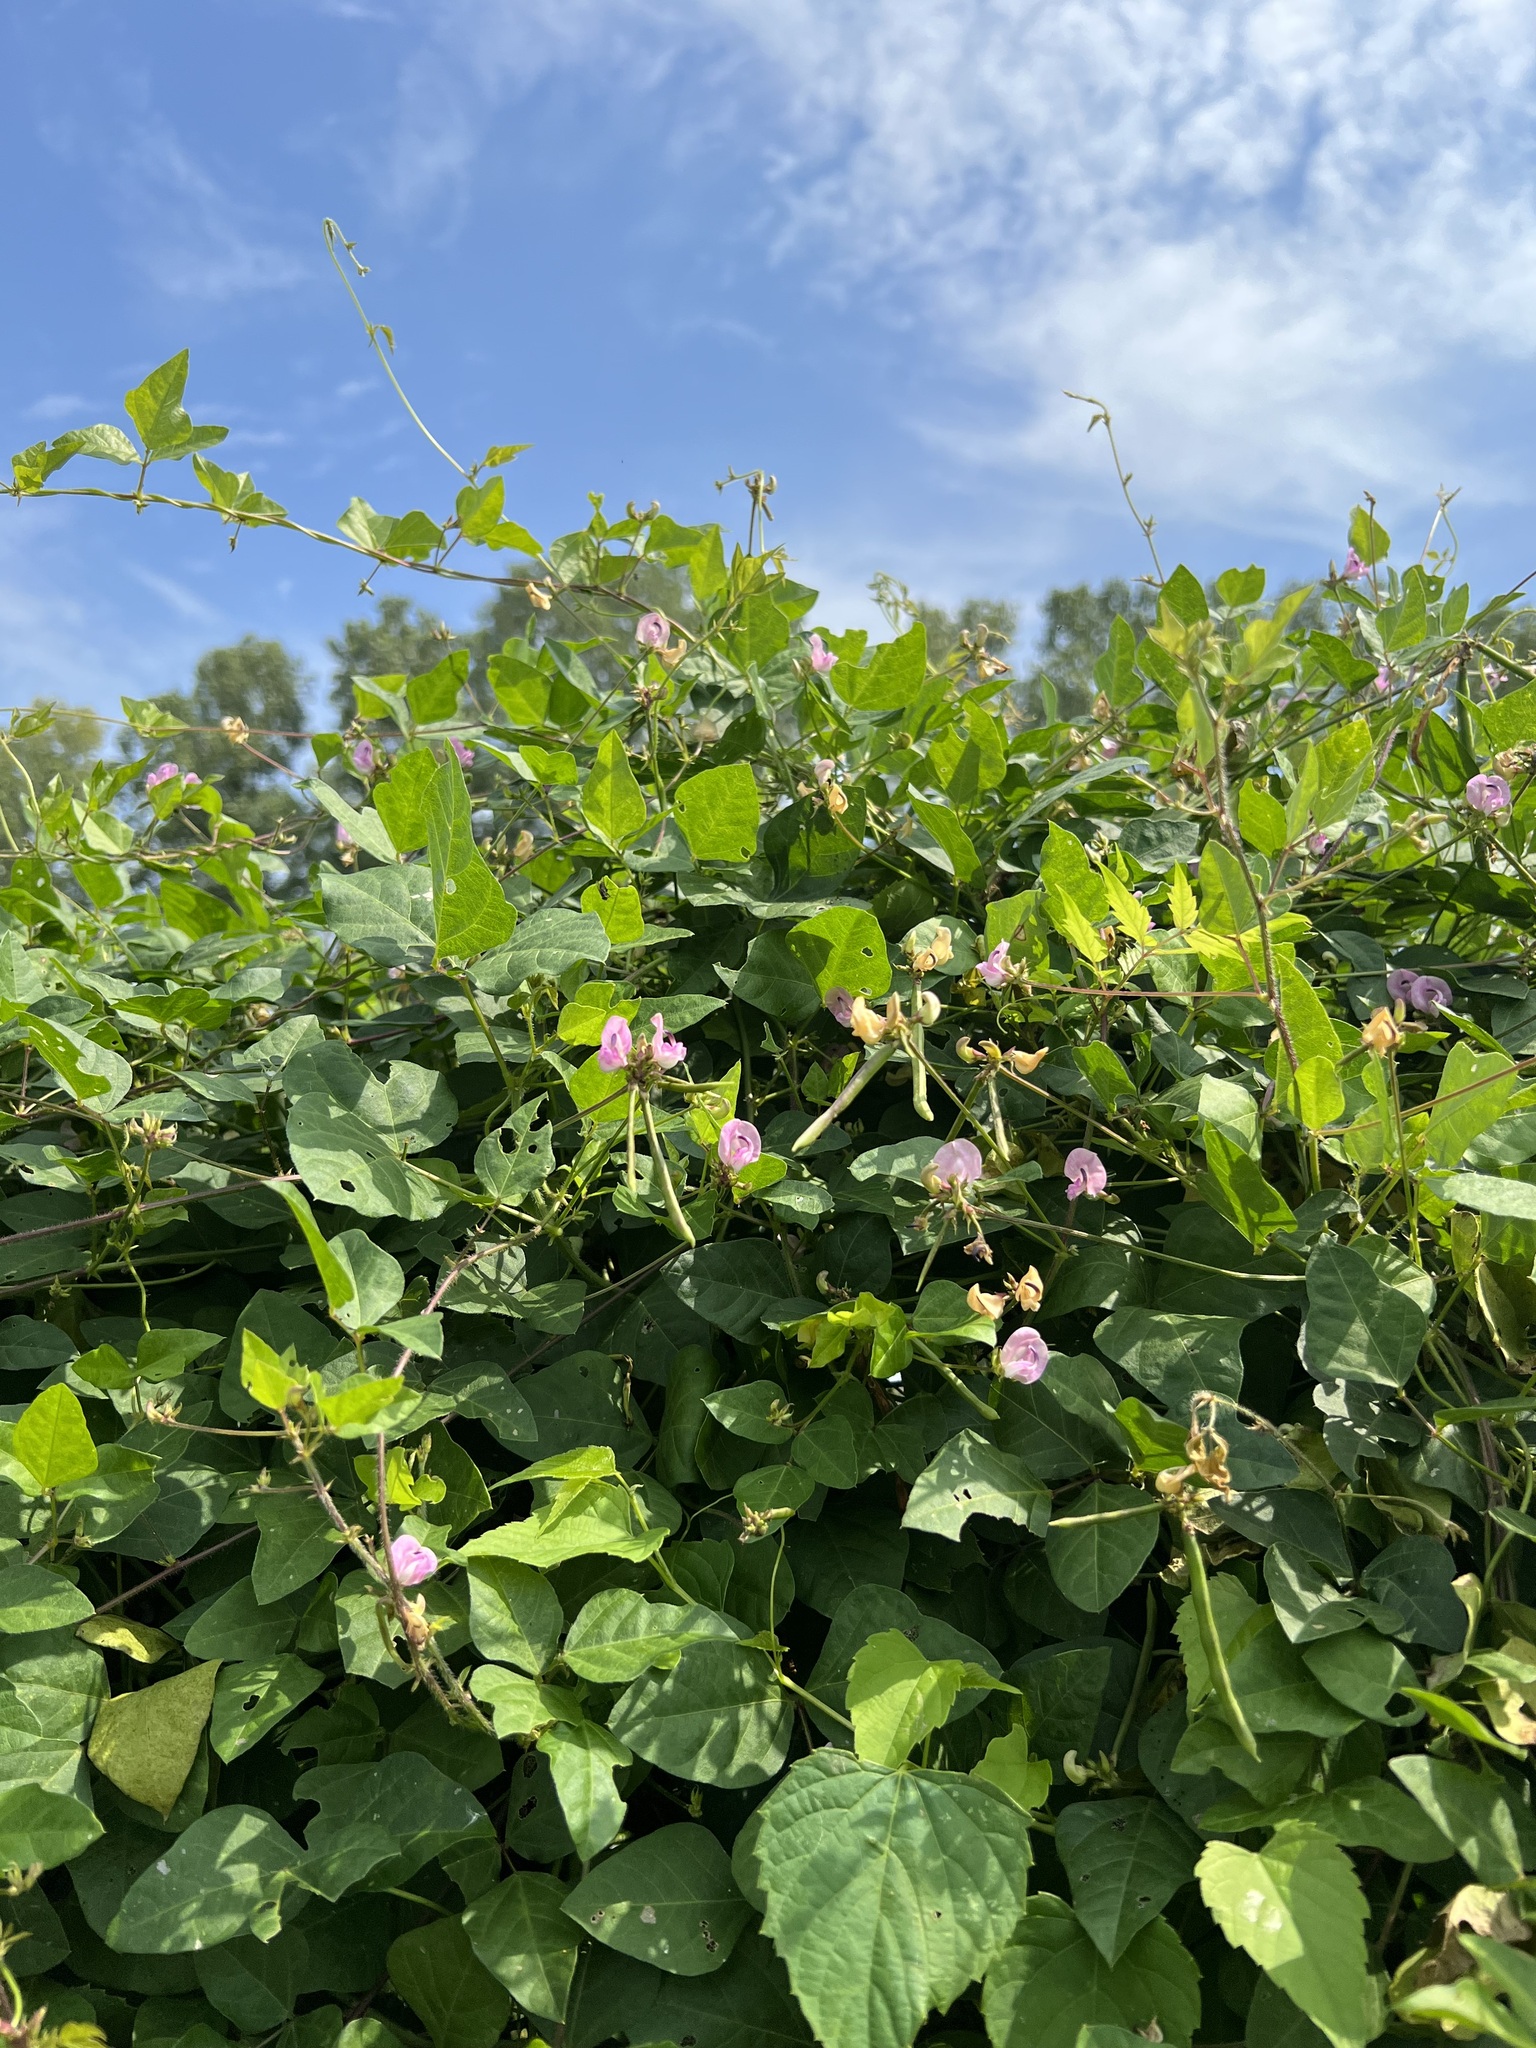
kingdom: Plantae
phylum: Tracheophyta
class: Magnoliopsida
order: Fabales
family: Fabaceae
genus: Strophostyles
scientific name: Strophostyles helvola
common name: Trailing wild bean
